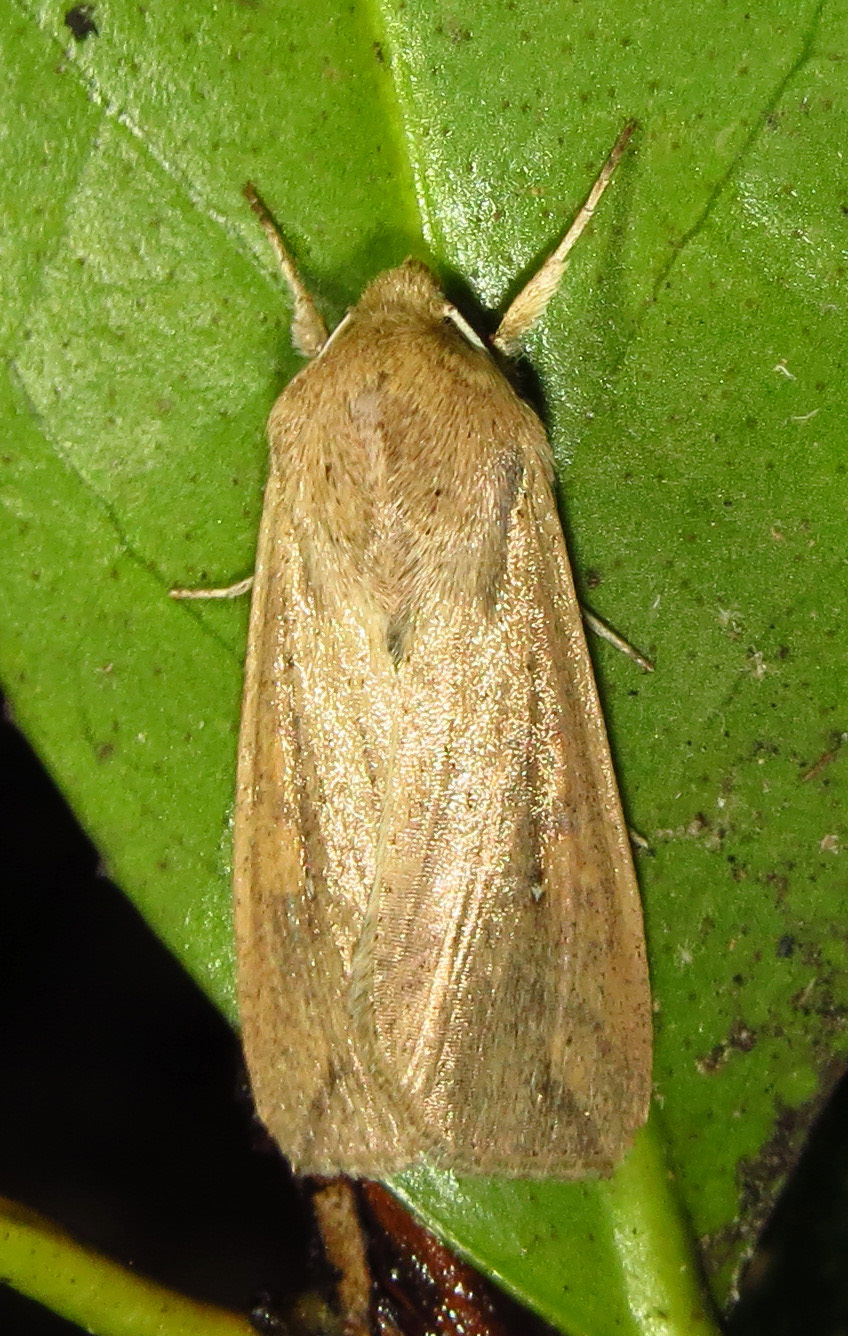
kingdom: Animalia
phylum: Arthropoda
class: Insecta
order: Lepidoptera
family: Noctuidae
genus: Mythimna
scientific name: Mythimna unipuncta
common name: White-speck
